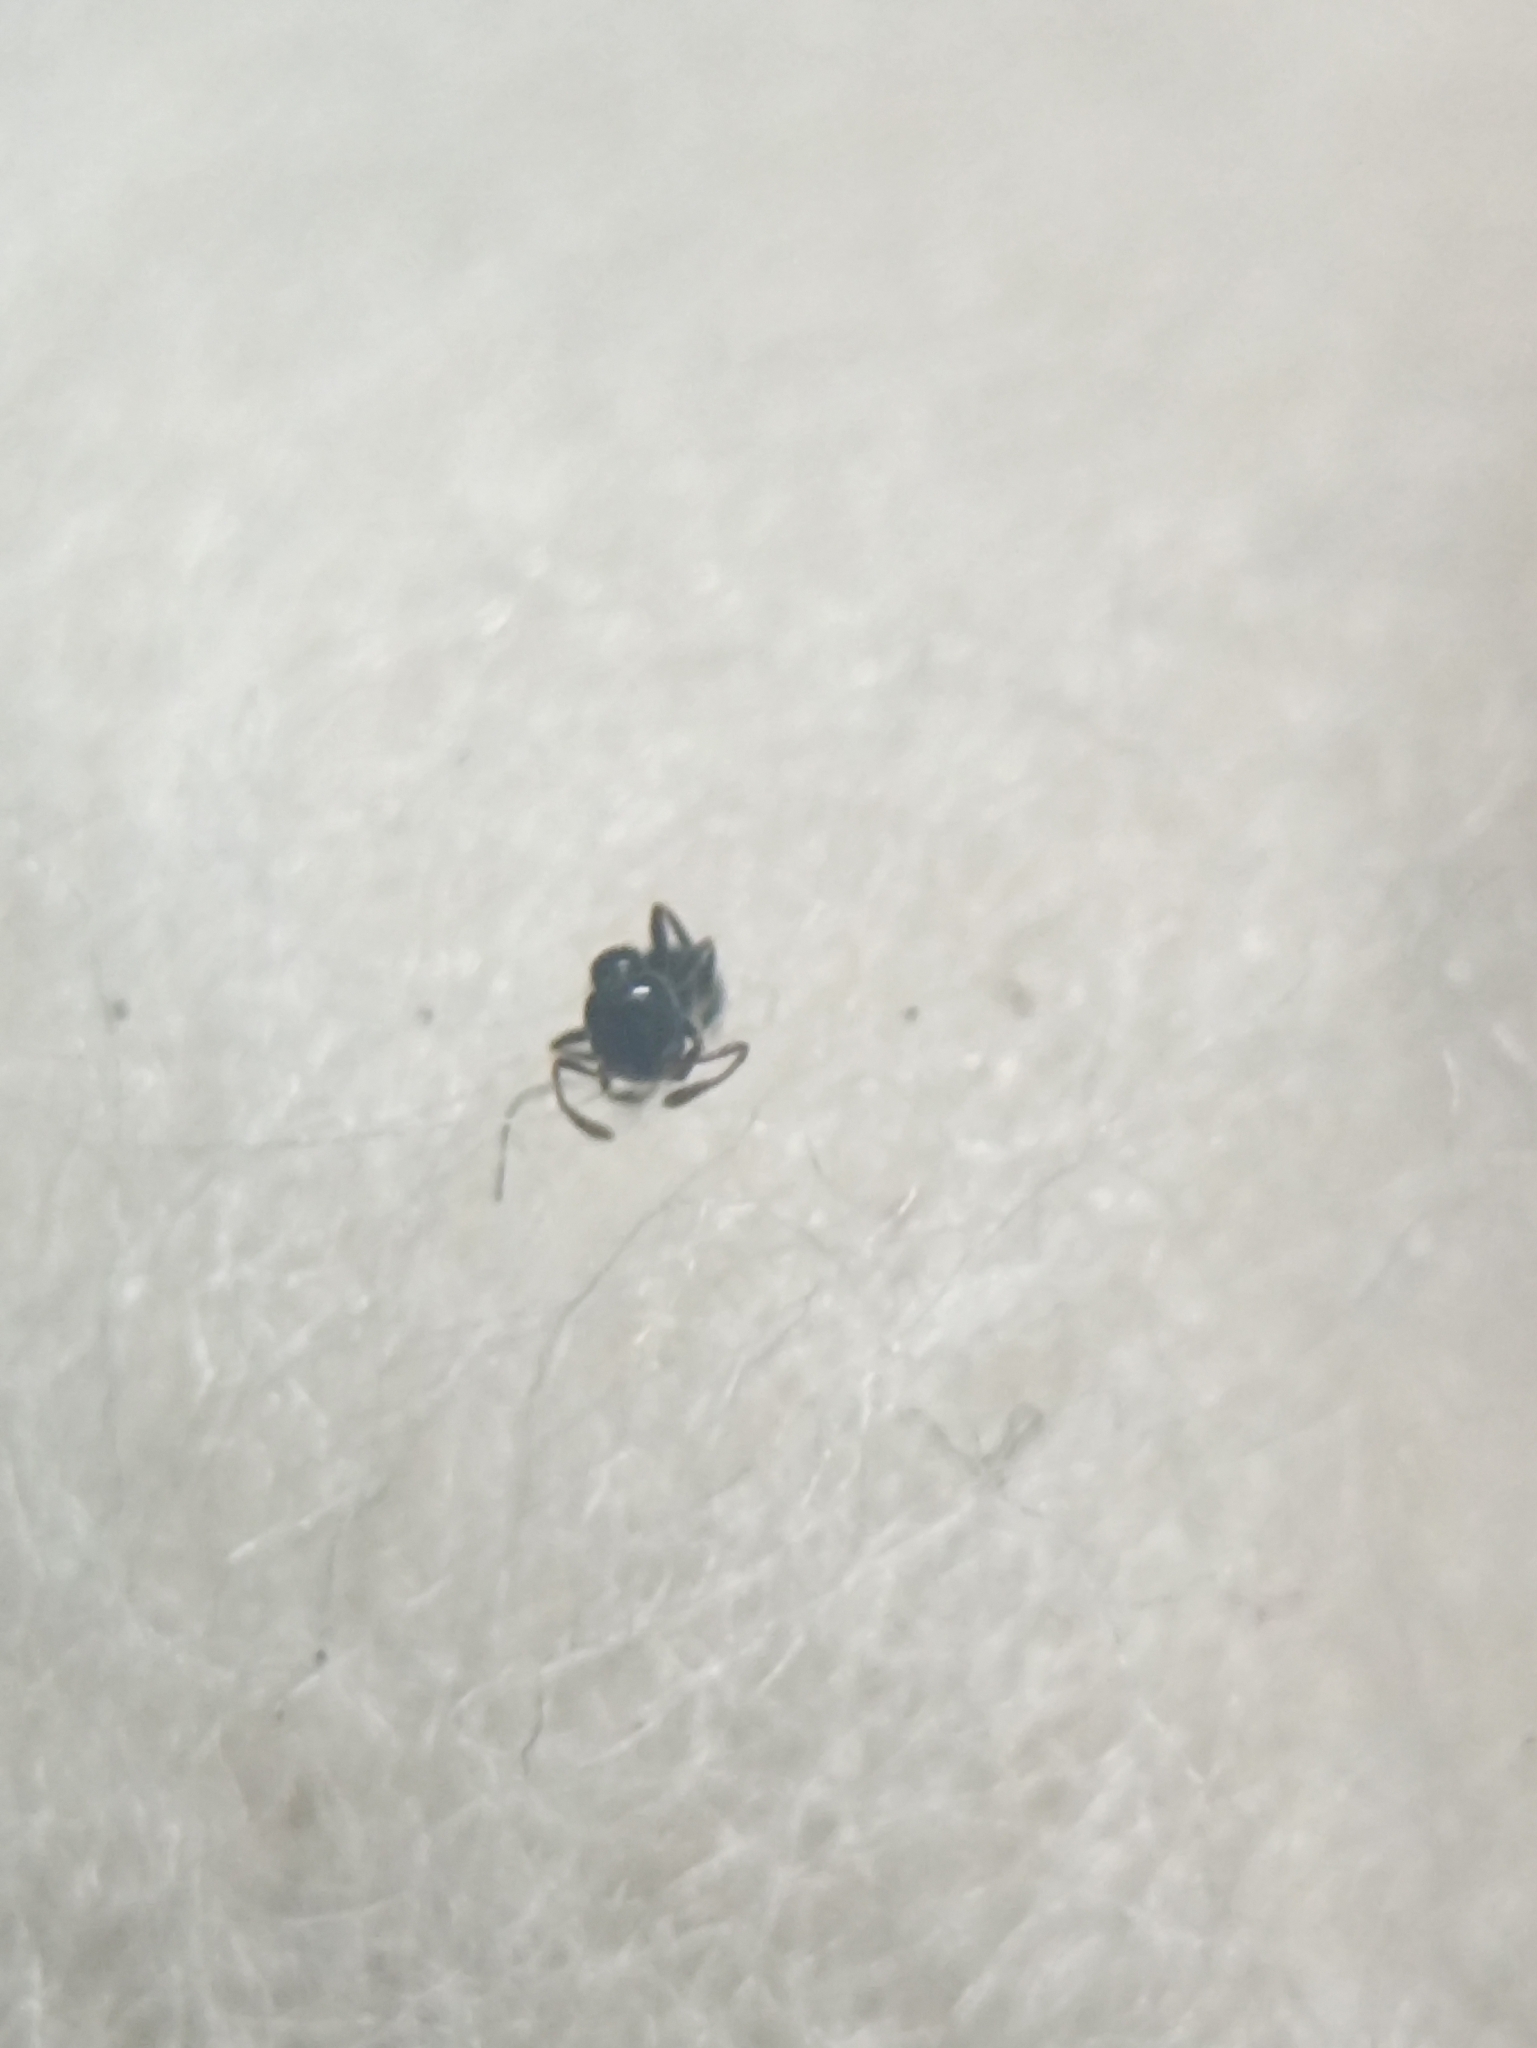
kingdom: Animalia
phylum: Arthropoda
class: Insecta
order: Hymenoptera
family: Formicidae
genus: Monomorium
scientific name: Monomorium carbonarium
